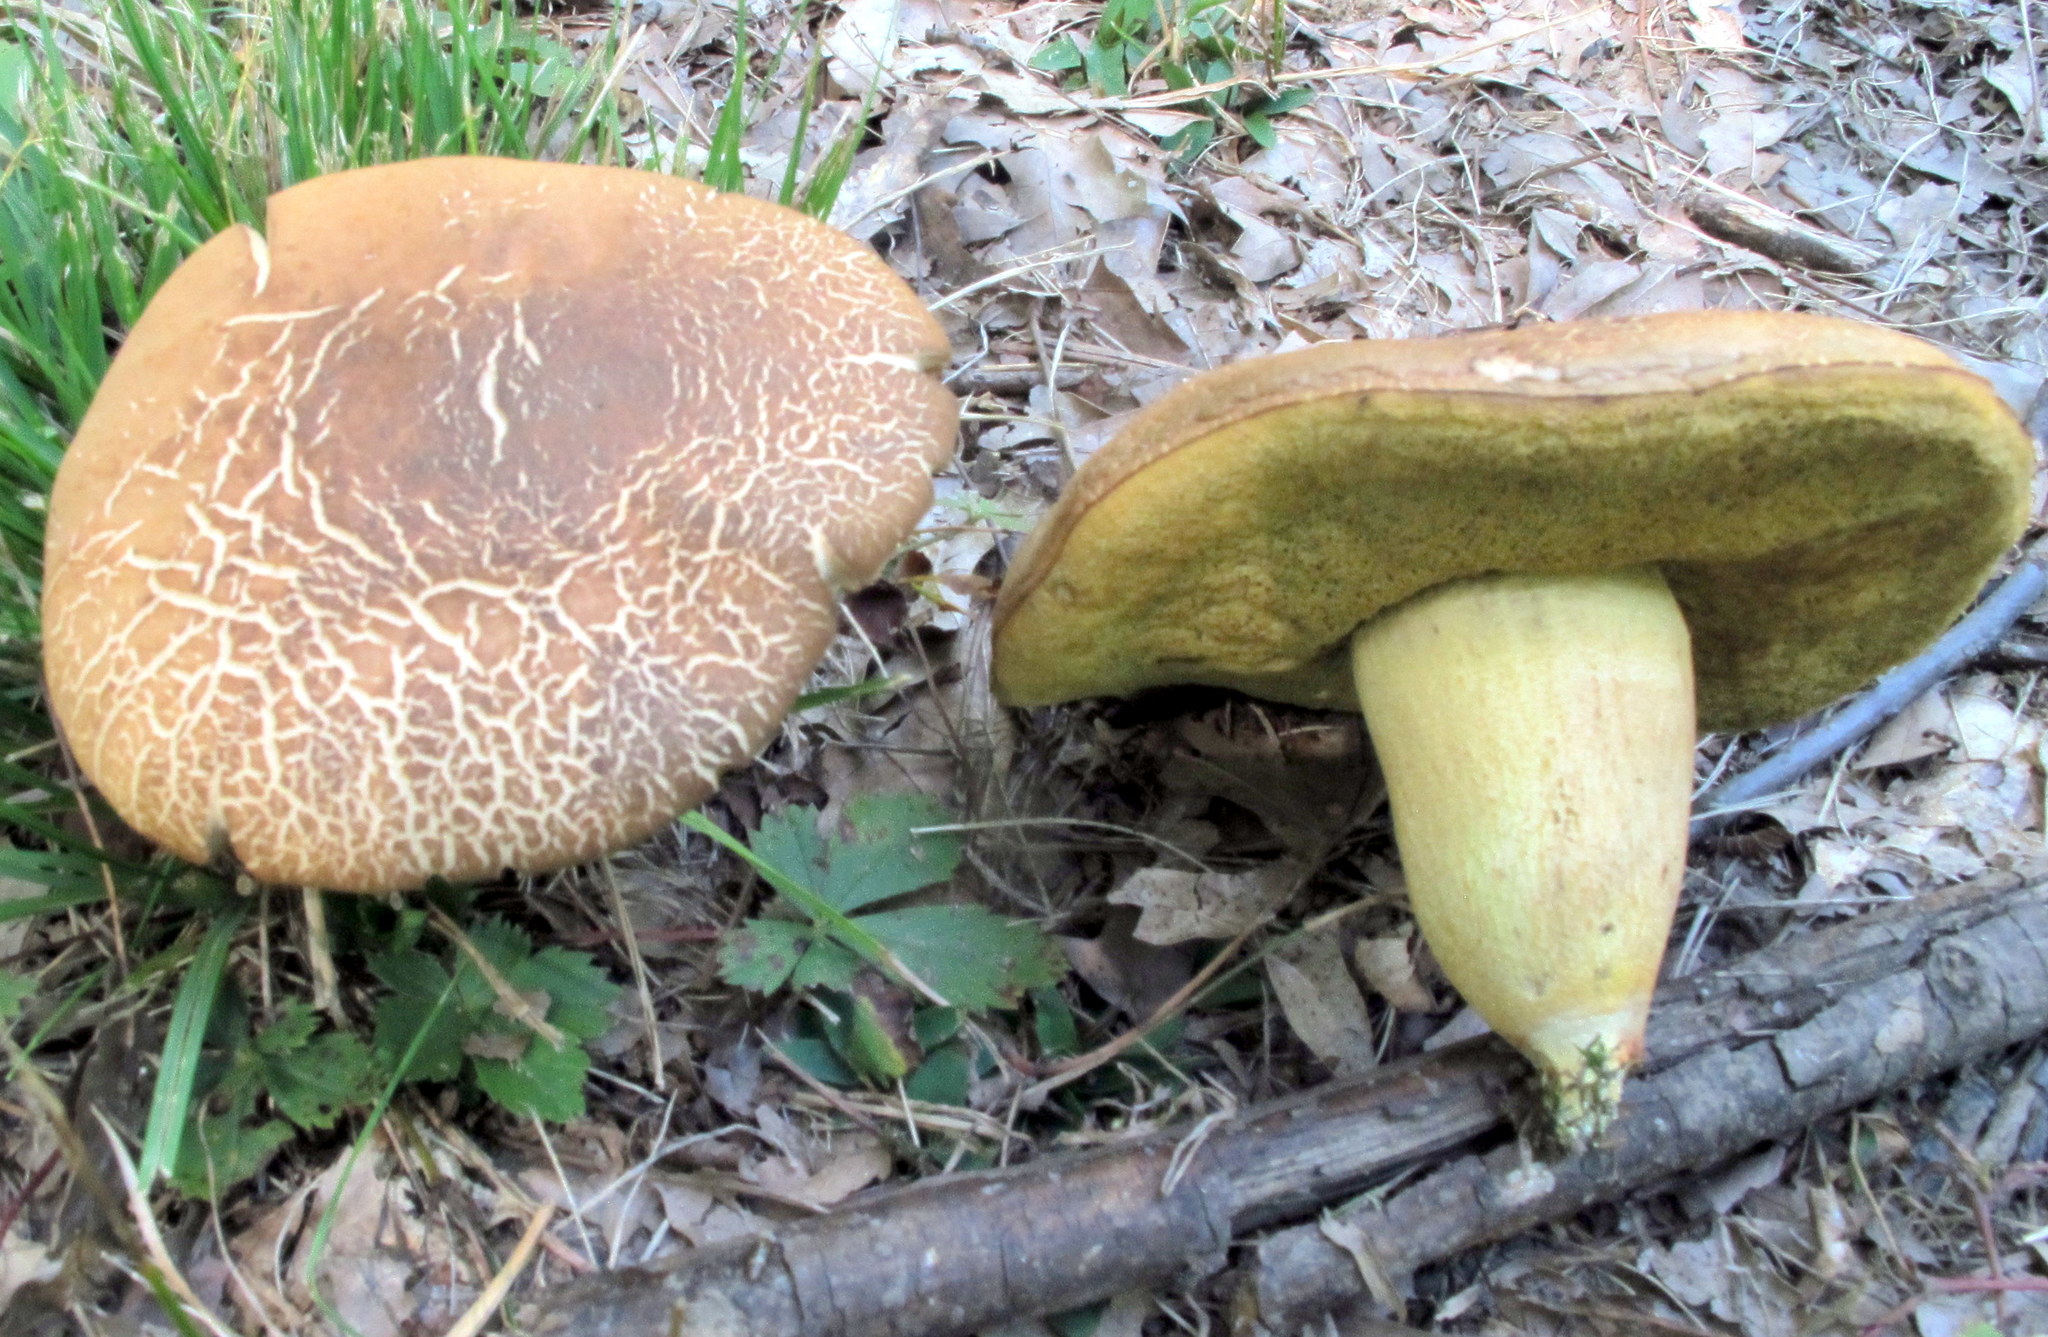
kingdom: Fungi
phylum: Basidiomycota
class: Agaricomycetes
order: Boletales
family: Boletaceae
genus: Leccinellum
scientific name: Leccinellum rugosiceps
